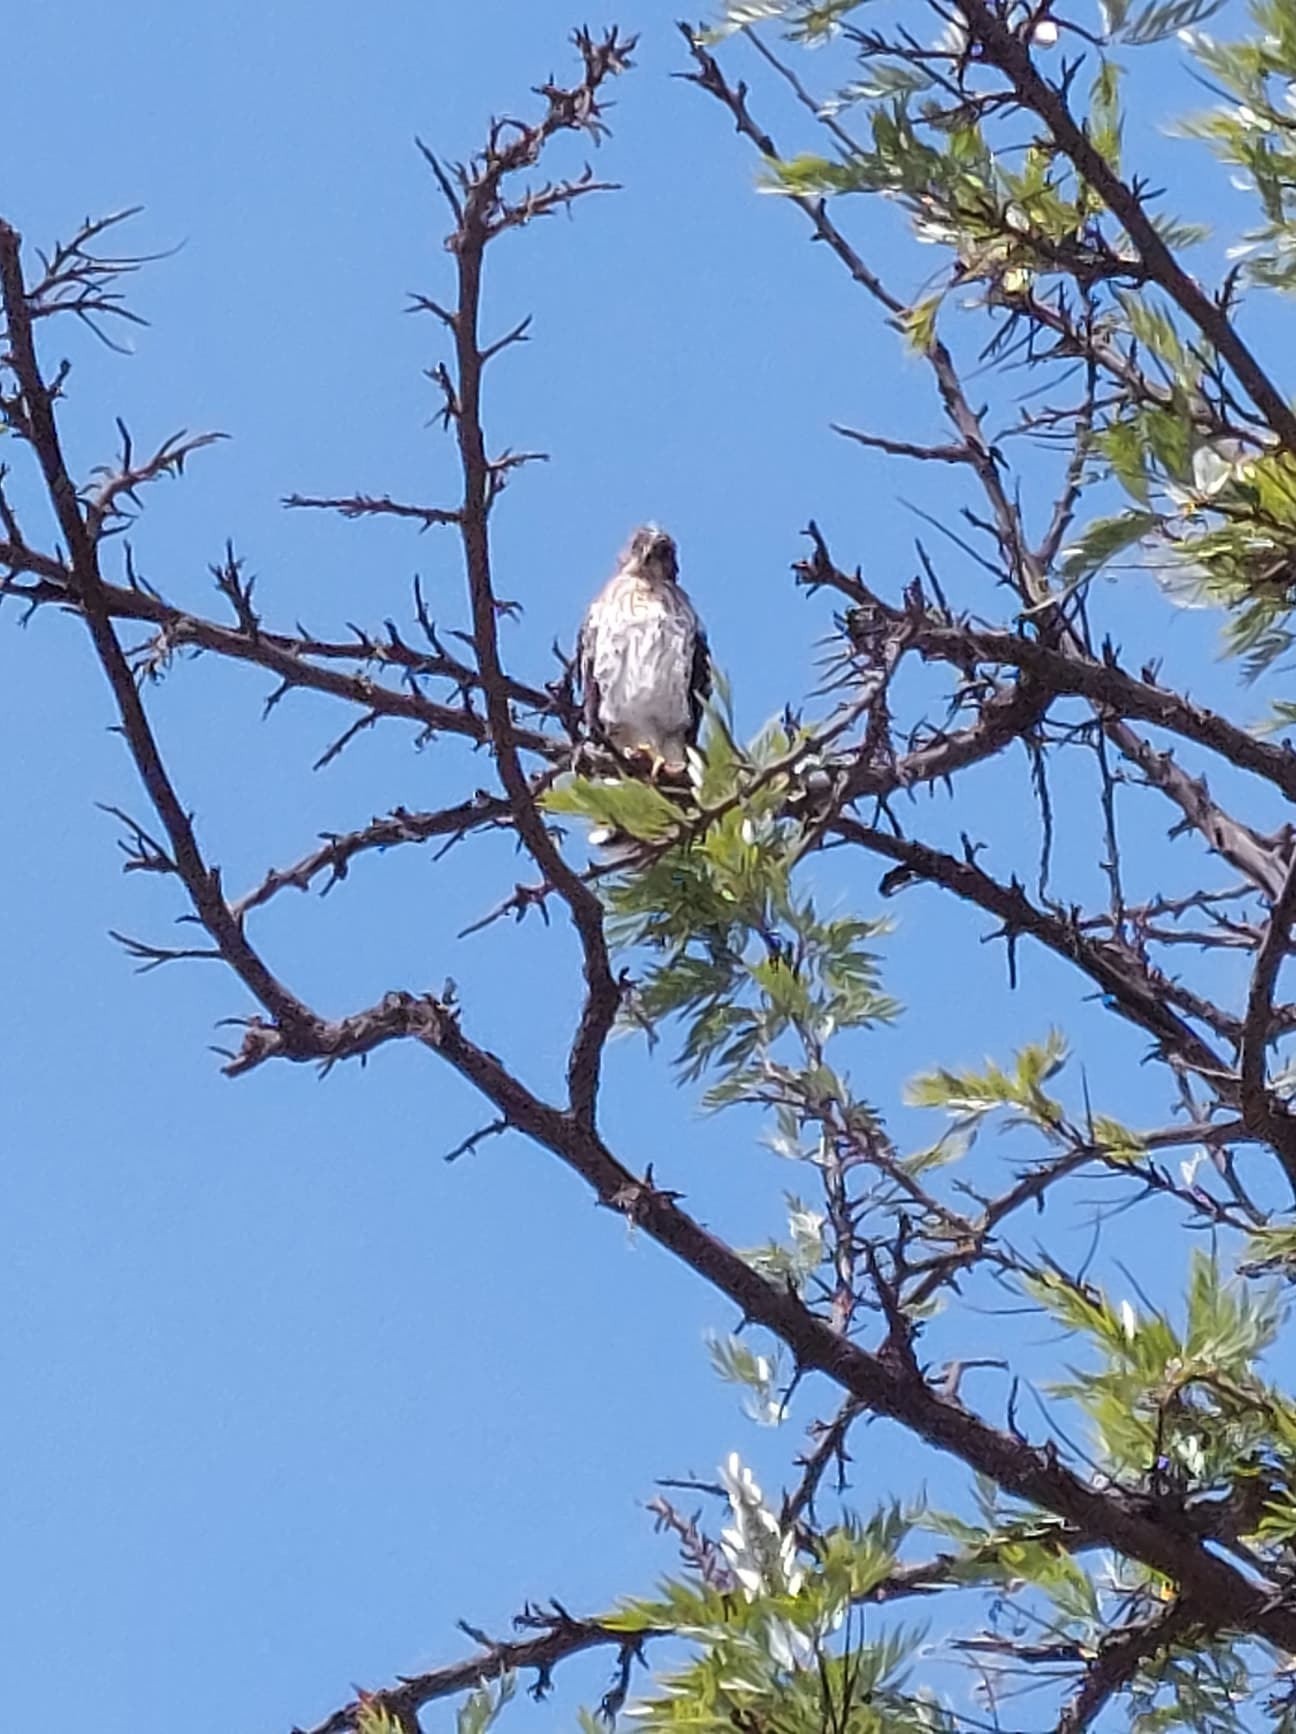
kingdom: Animalia
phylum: Chordata
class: Aves
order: Accipitriformes
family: Accipitridae
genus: Buteo
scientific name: Buteo jamaicensis
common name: Red-tailed hawk
